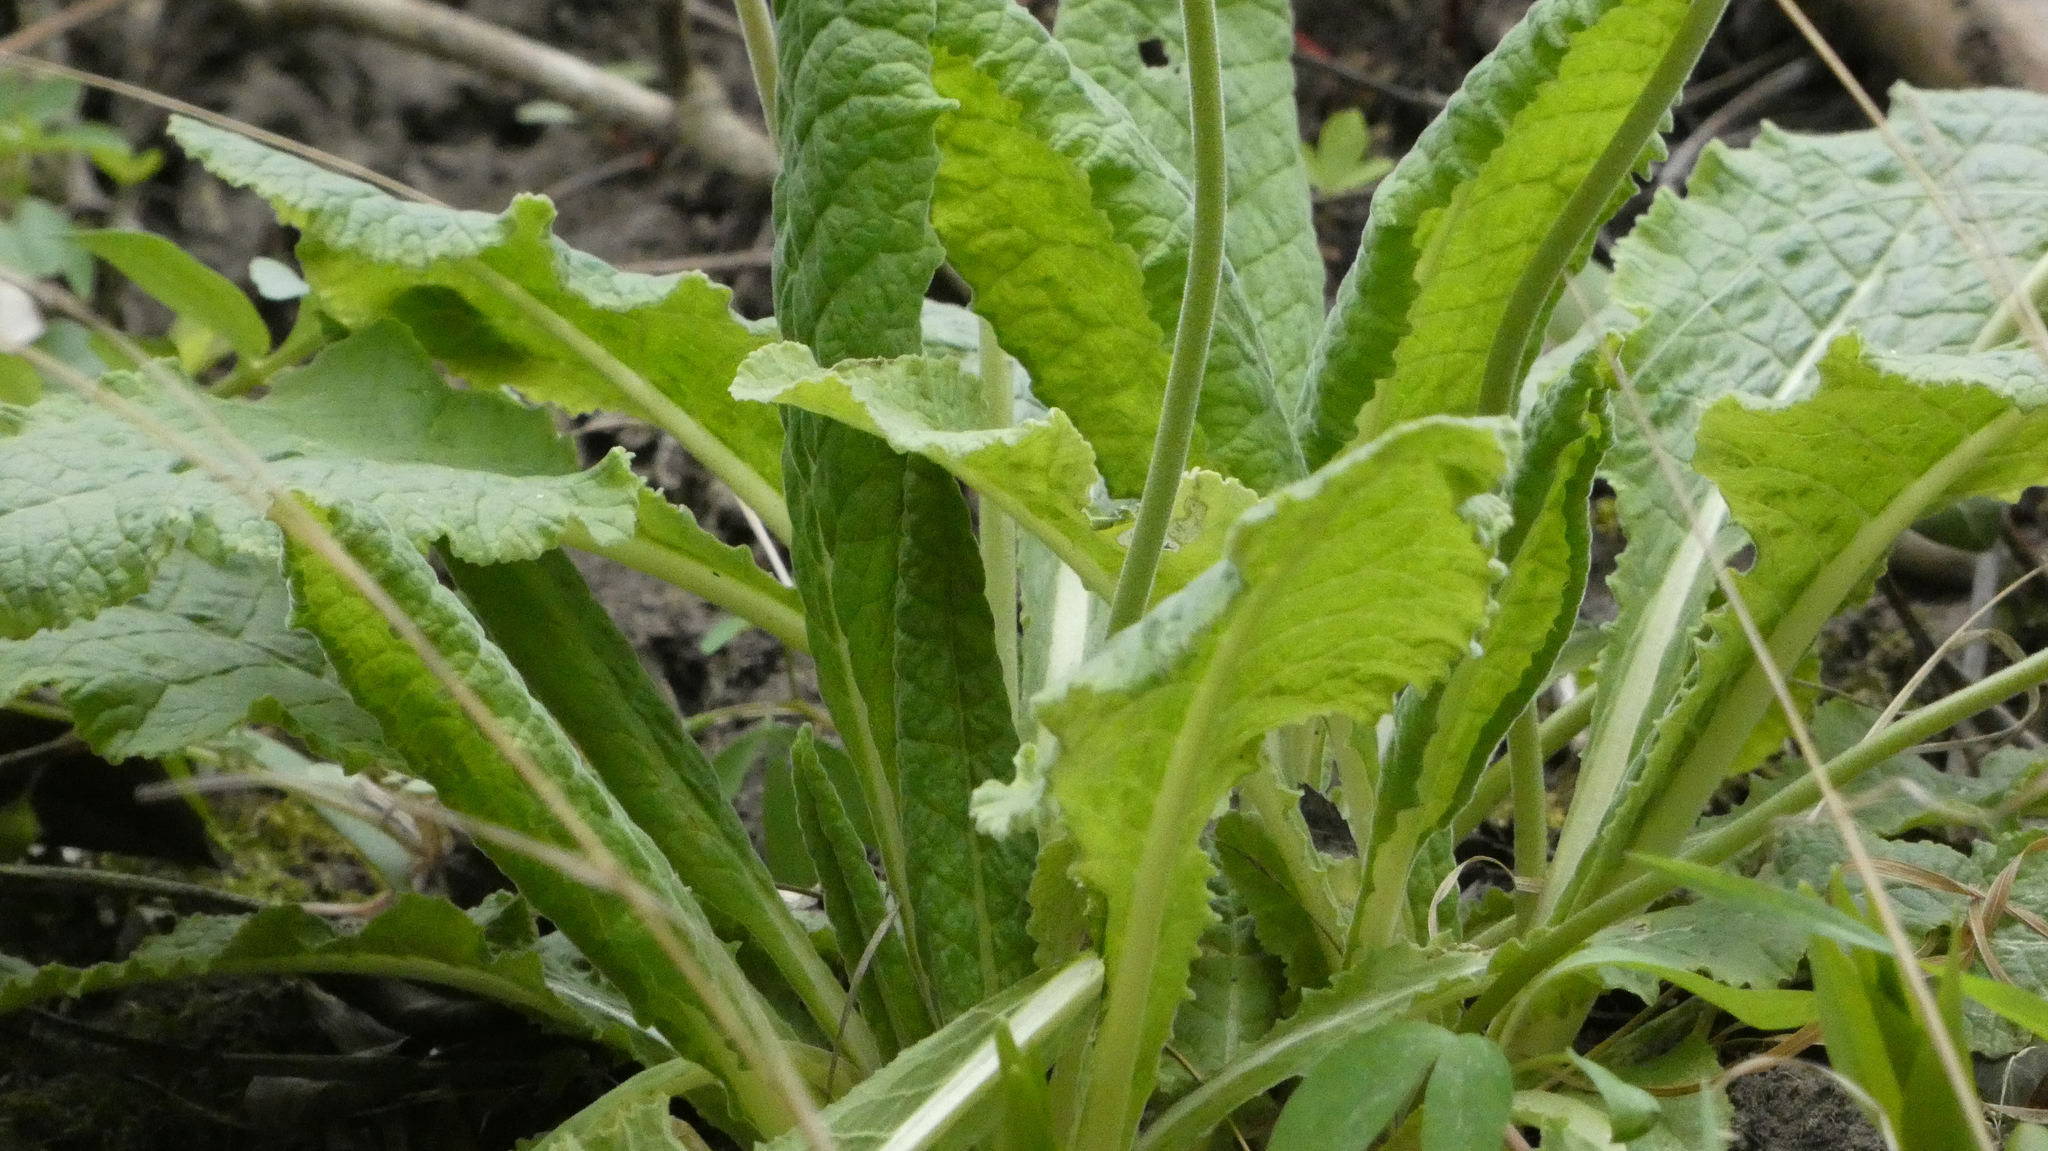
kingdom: Plantae
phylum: Tracheophyta
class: Magnoliopsida
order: Ericales
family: Primulaceae
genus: Primula
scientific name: Primula veris
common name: Cowslip
